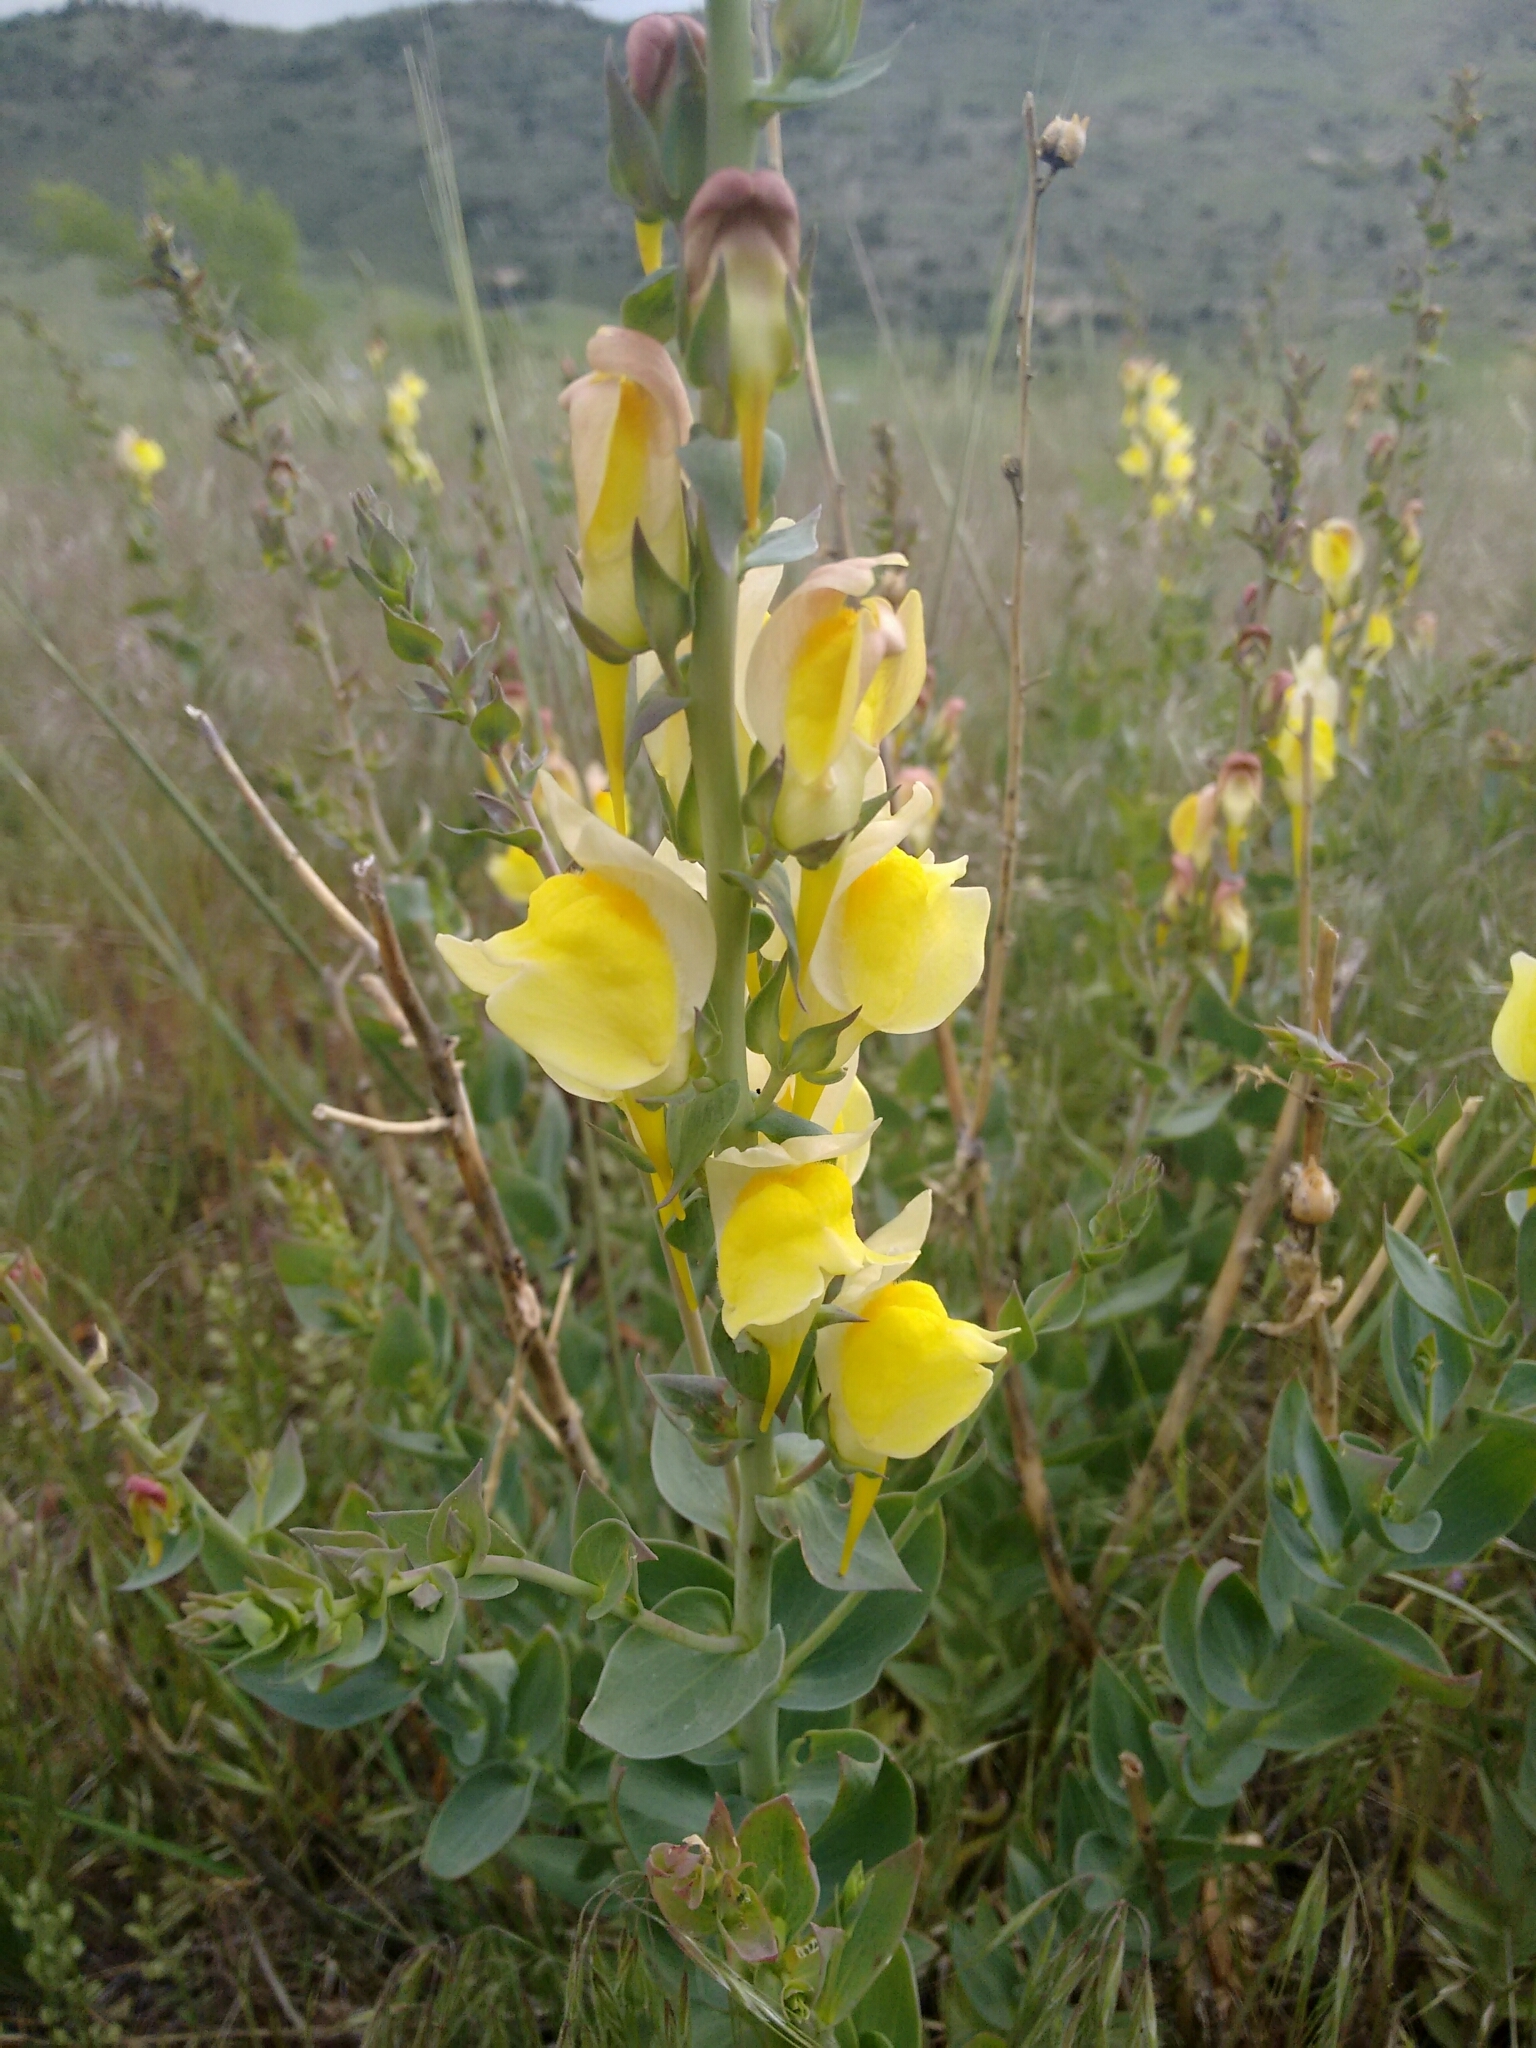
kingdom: Plantae
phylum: Tracheophyta
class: Magnoliopsida
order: Lamiales
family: Plantaginaceae
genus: Linaria
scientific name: Linaria dalmatica
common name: Dalmatian toadflax
